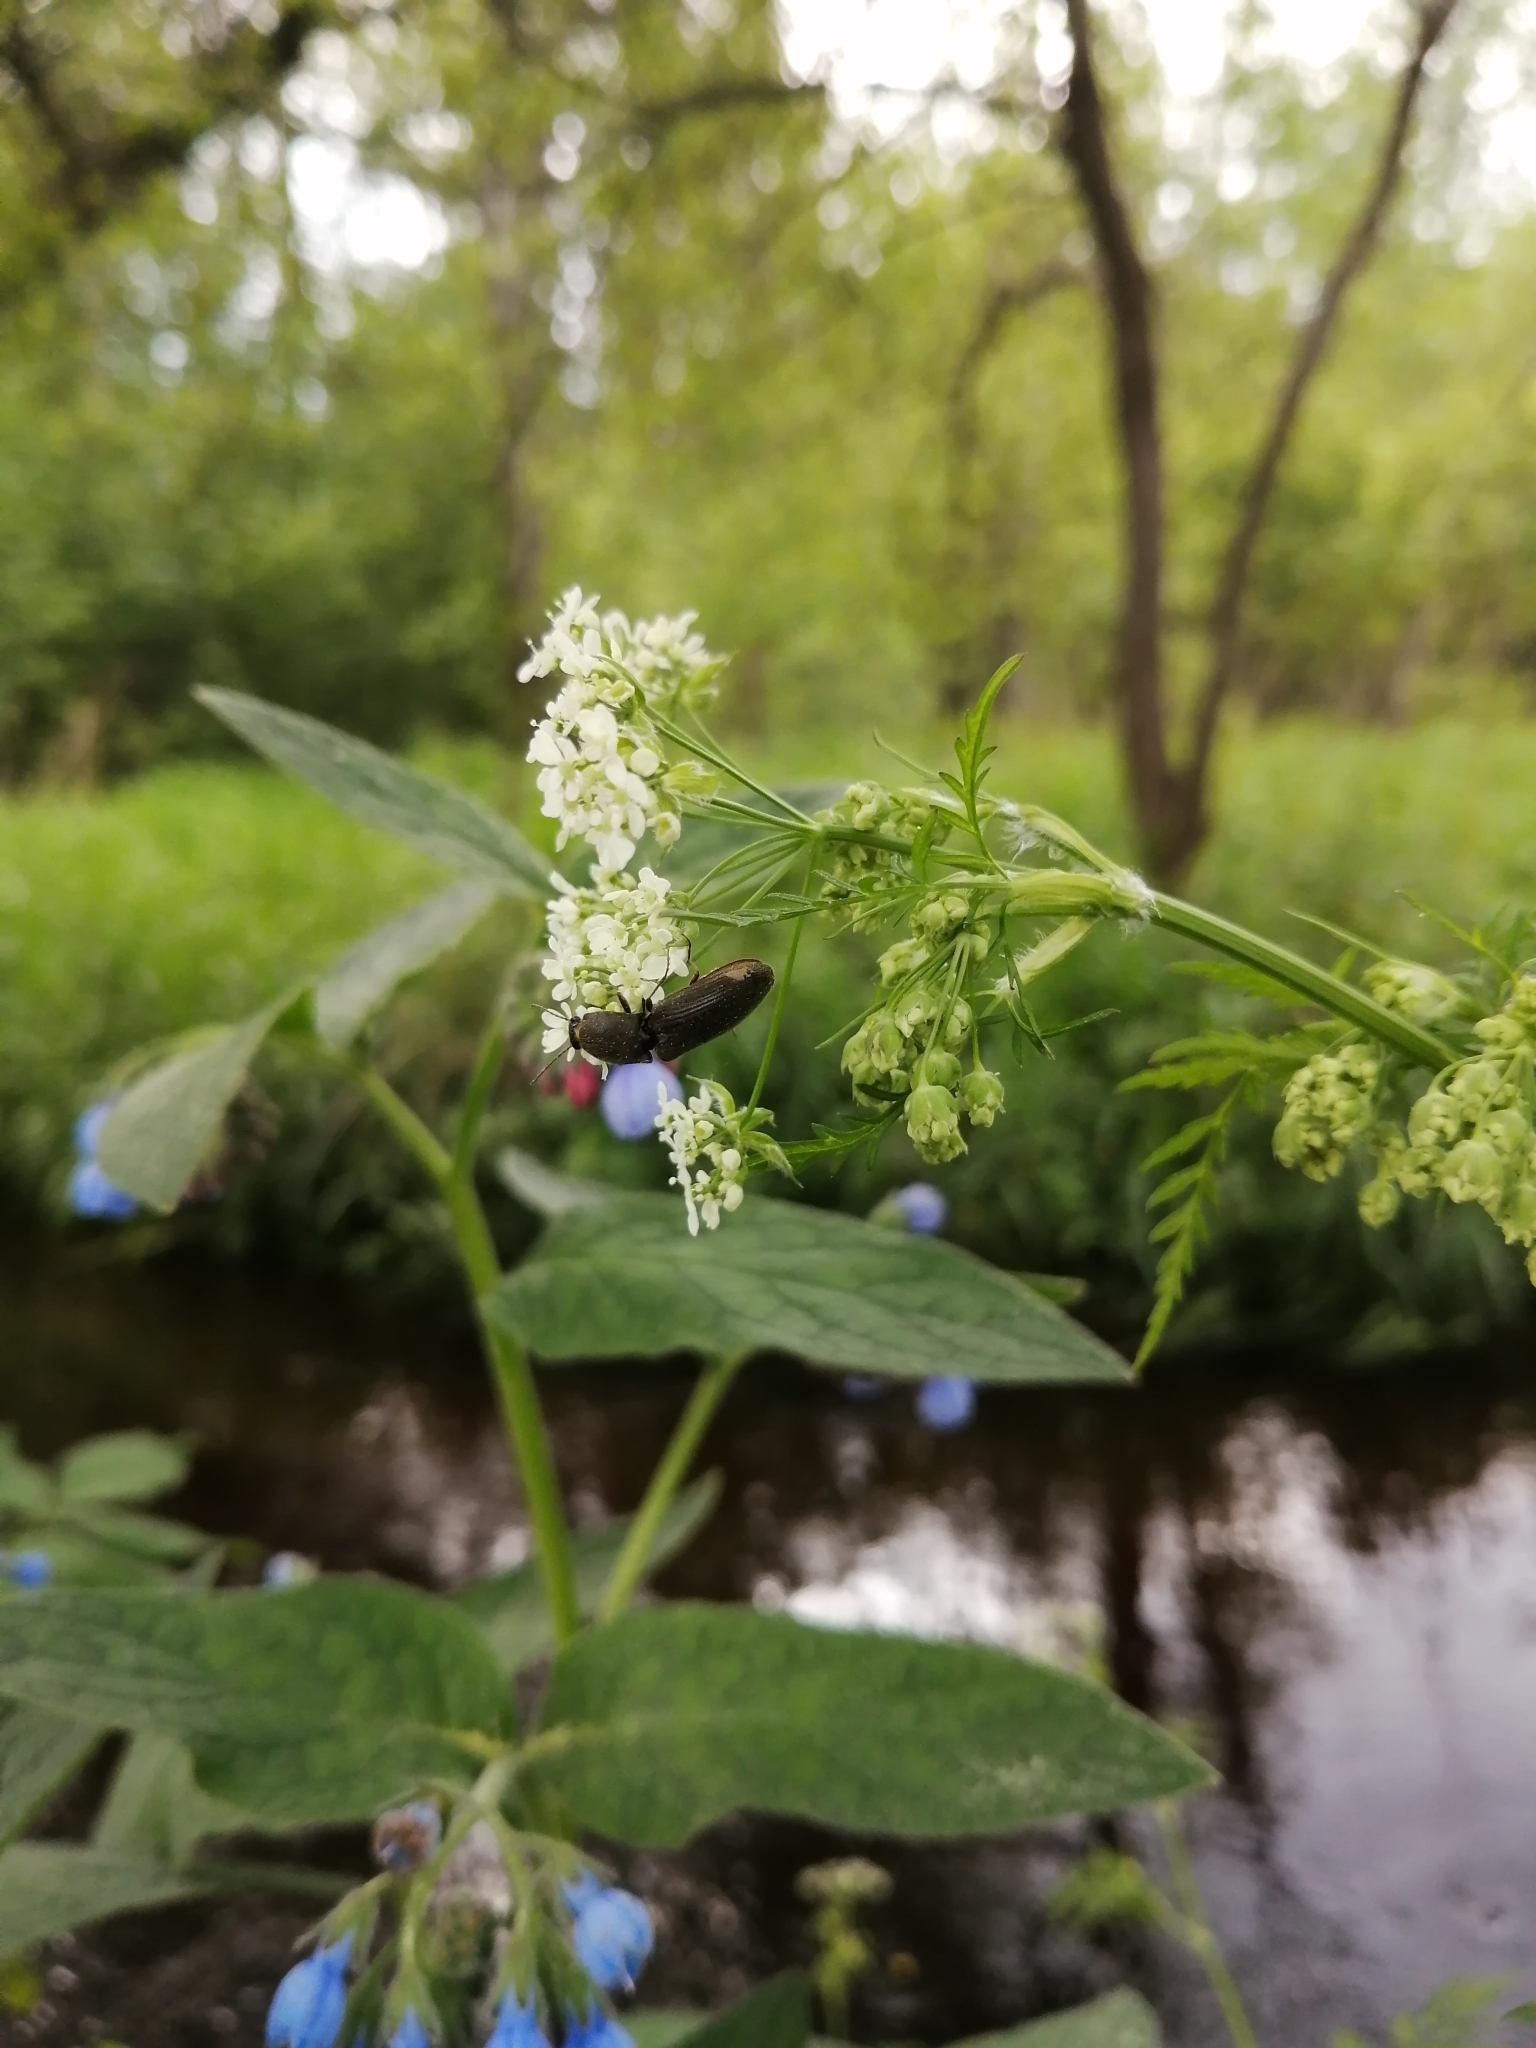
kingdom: Animalia
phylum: Arthropoda
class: Insecta
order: Coleoptera
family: Elateridae
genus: Athous
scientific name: Athous haemorrhoidalis
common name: Red-brown click beetle
